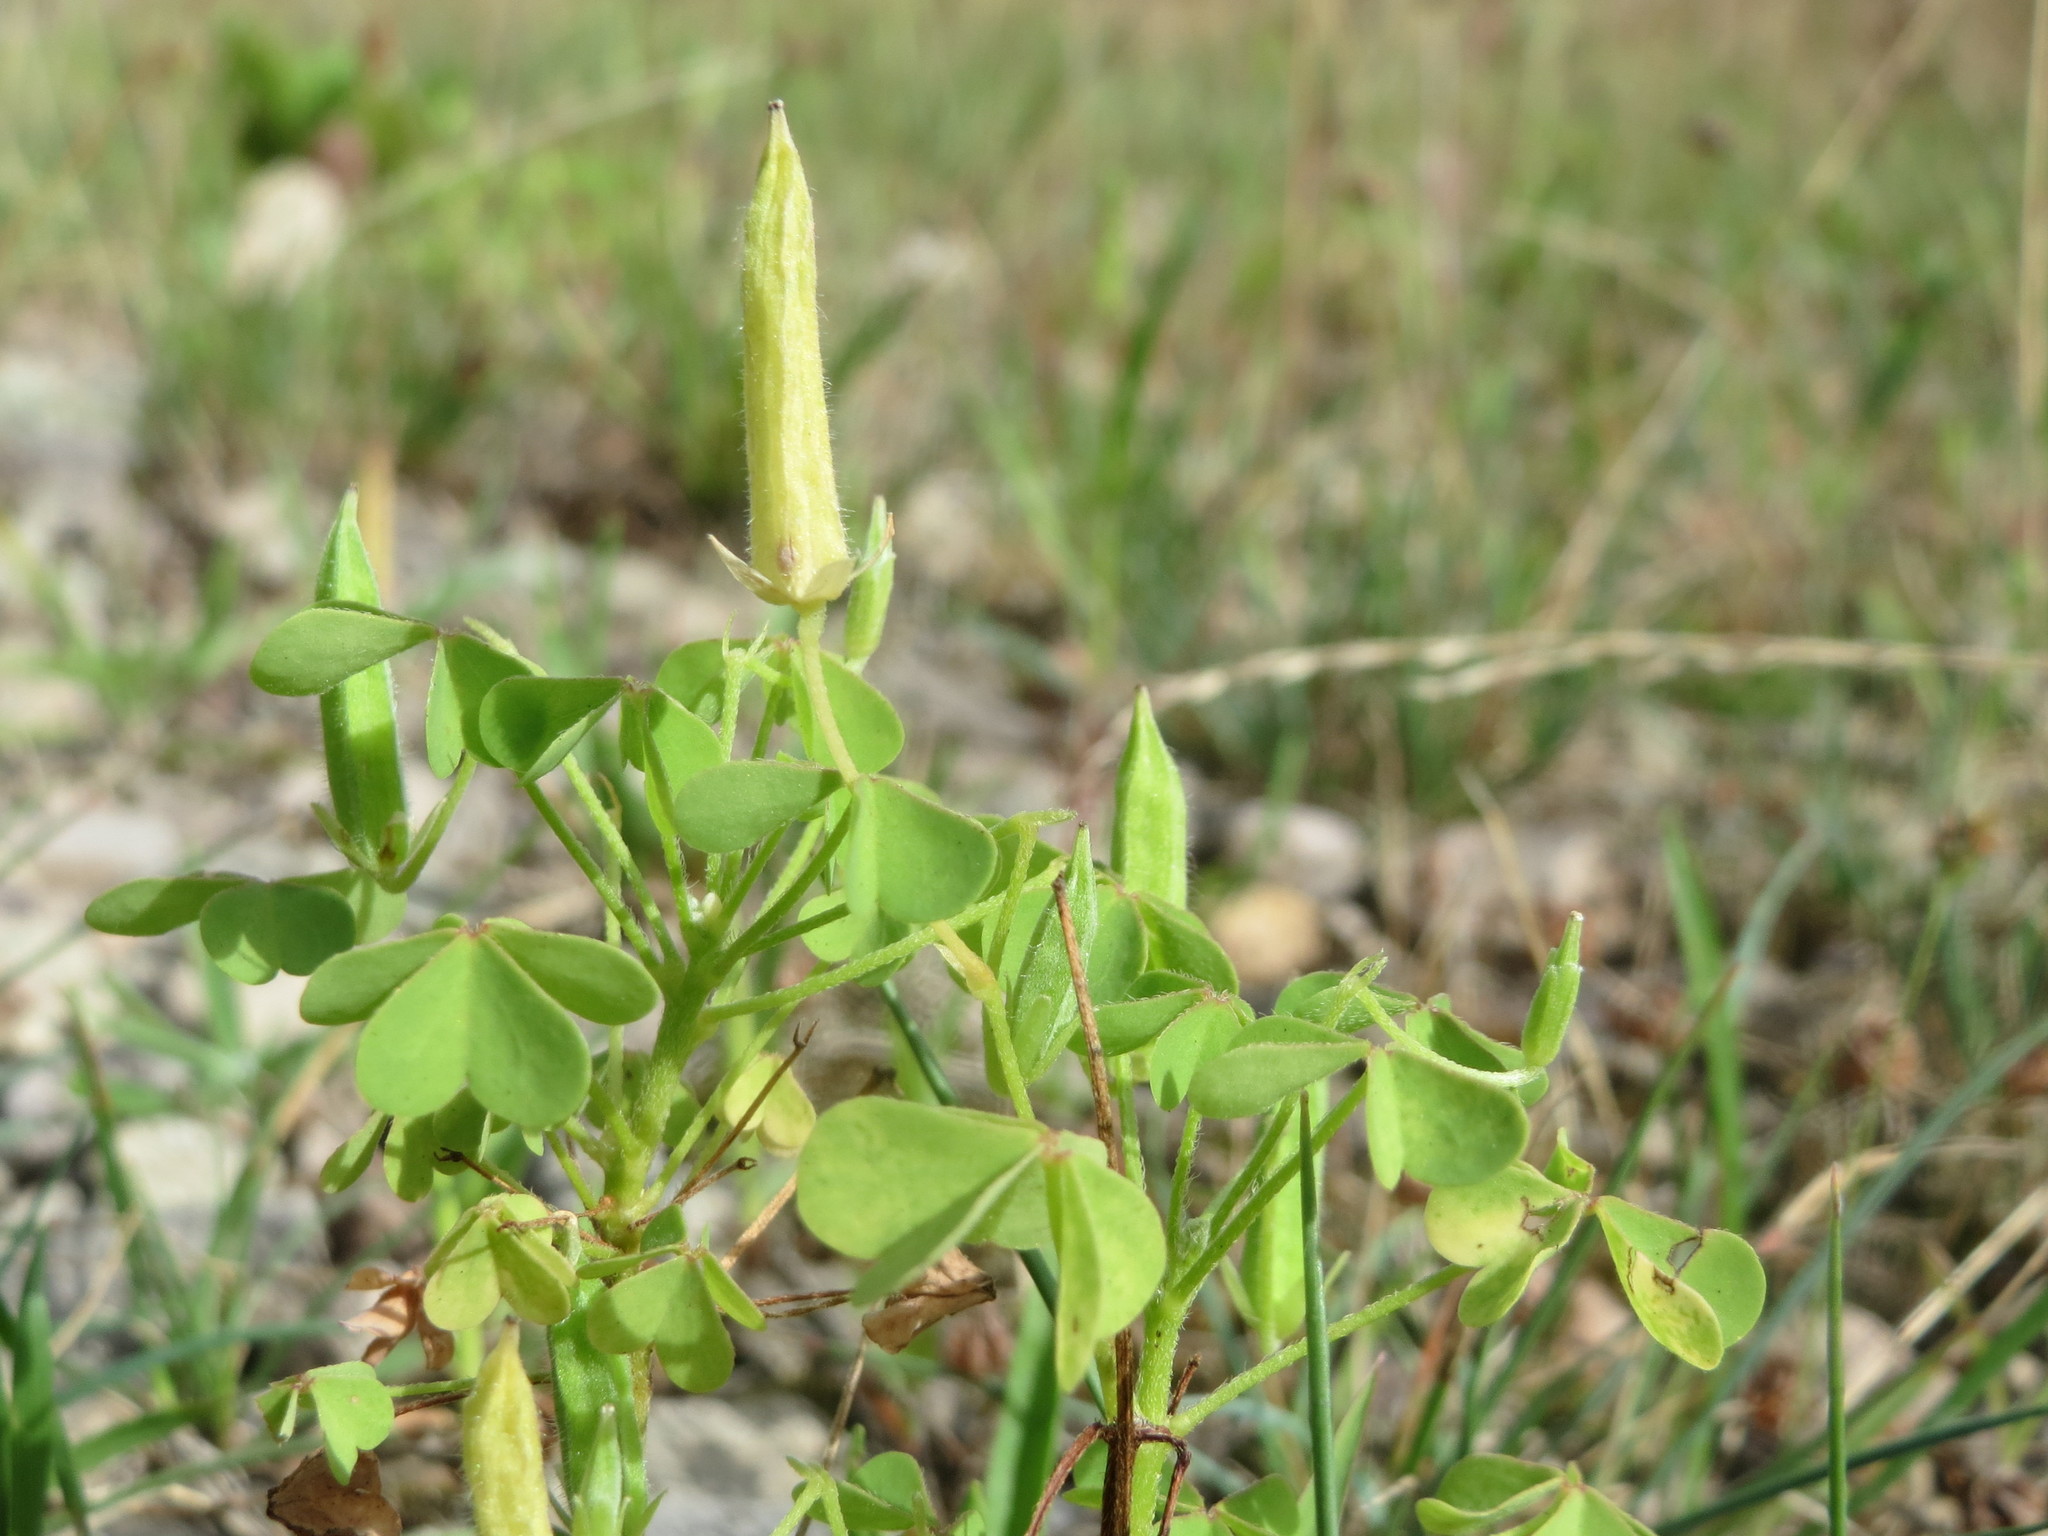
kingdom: Plantae
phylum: Tracheophyta
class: Magnoliopsida
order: Oxalidales
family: Oxalidaceae
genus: Oxalis
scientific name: Oxalis stricta
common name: Upright yellow-sorrel
